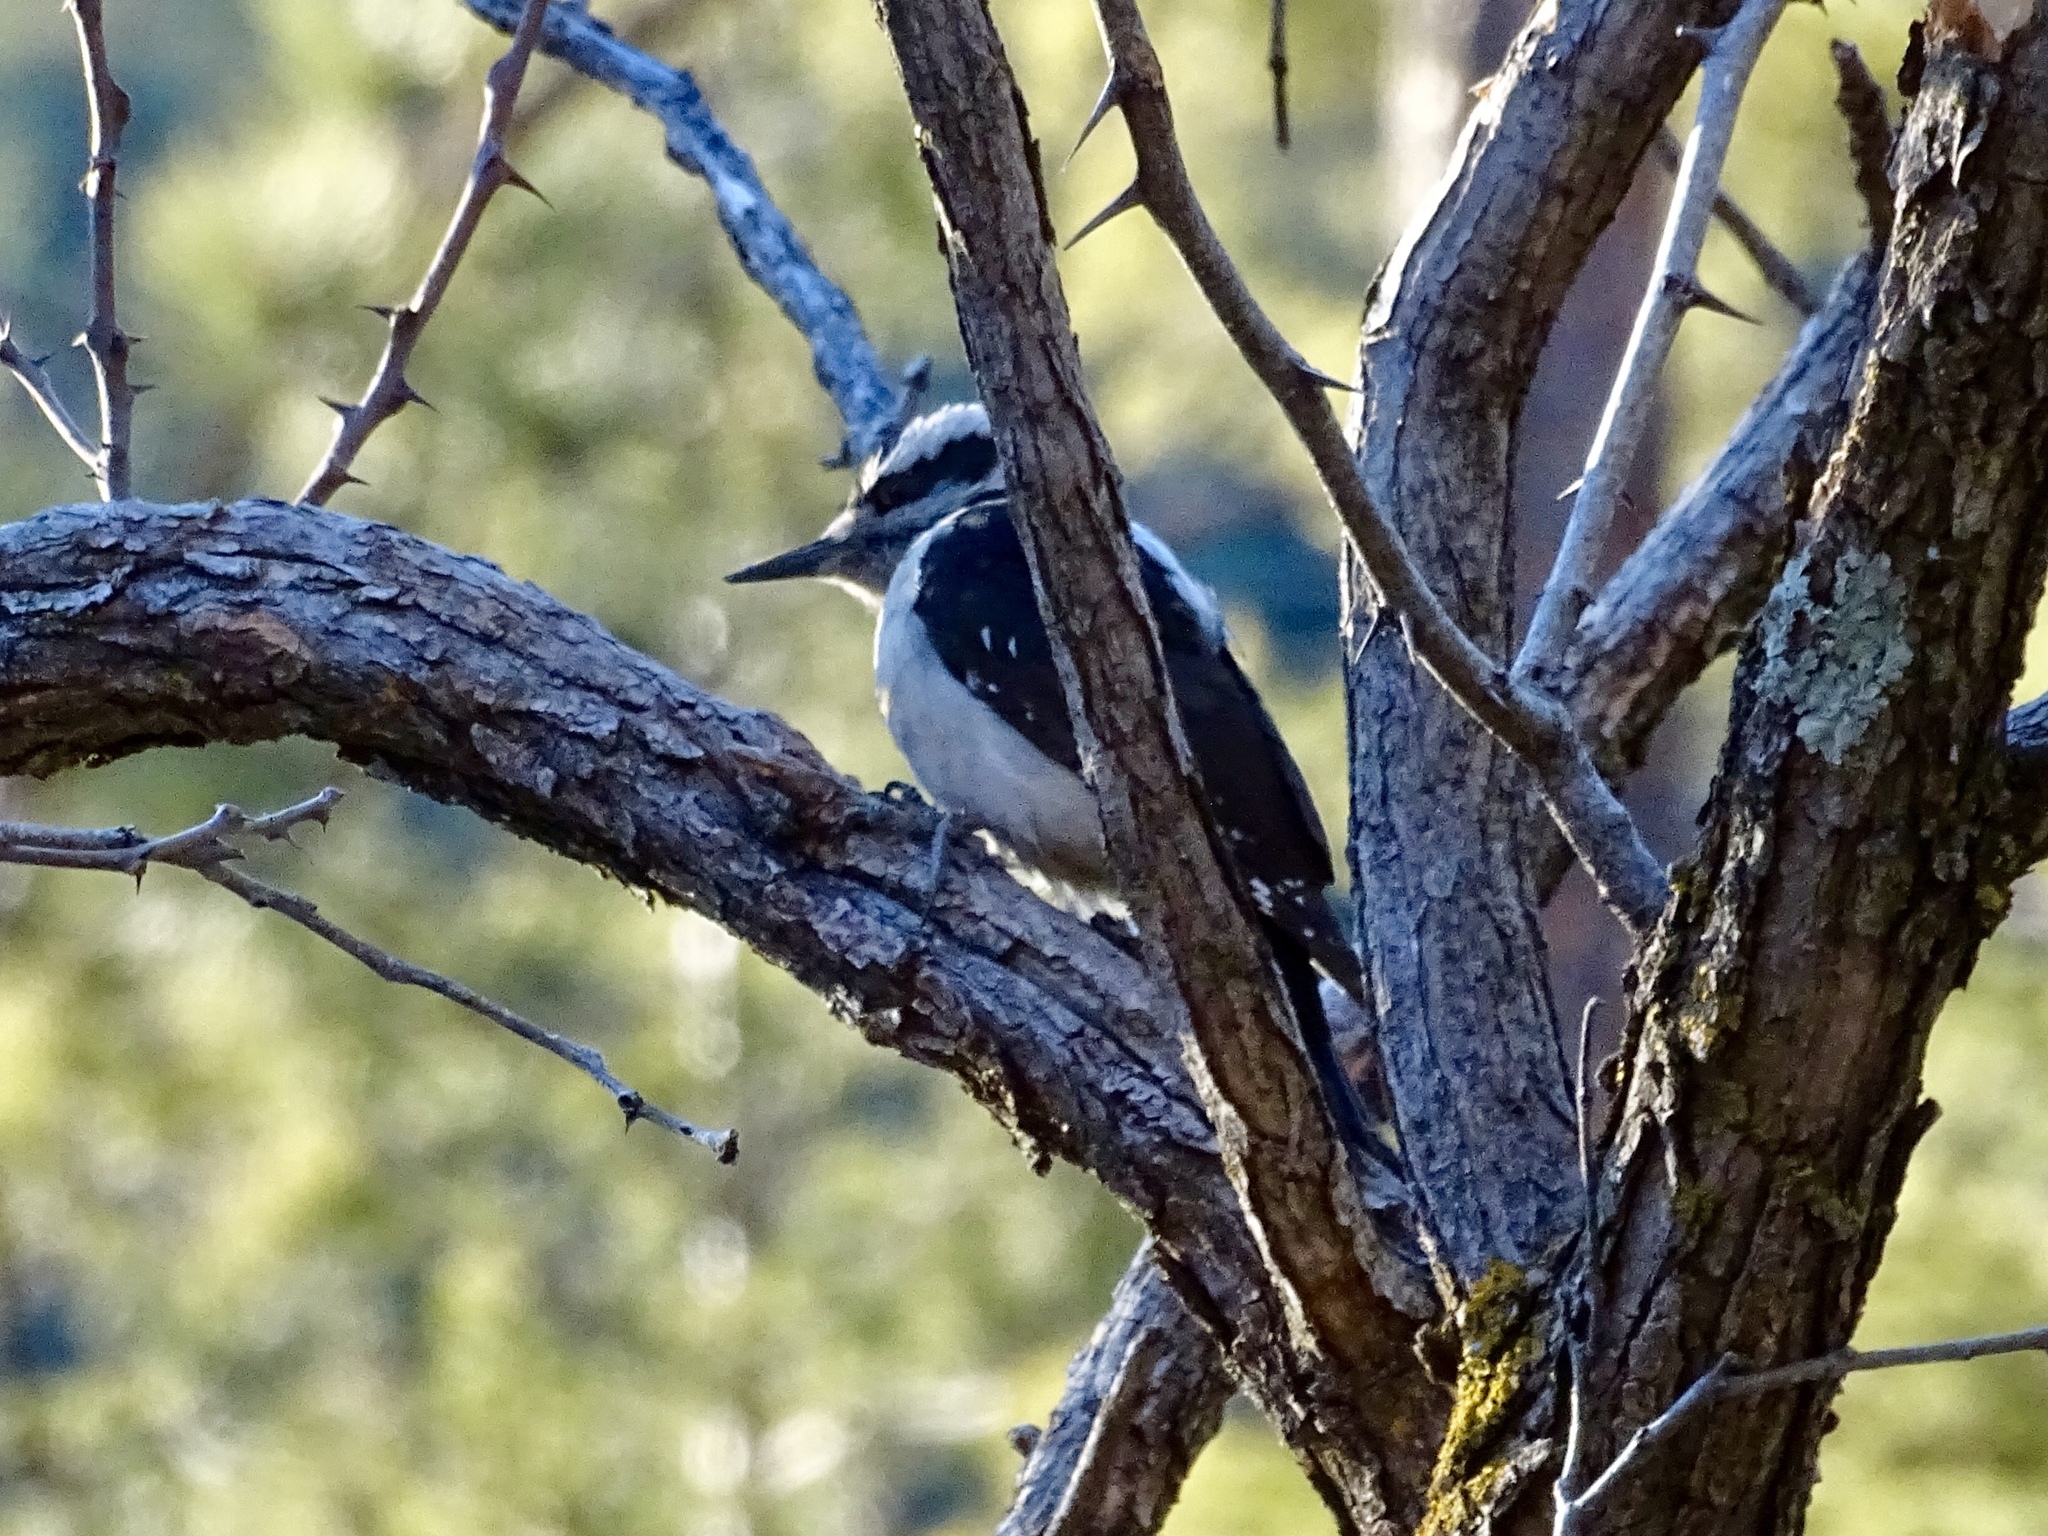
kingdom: Animalia
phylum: Chordata
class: Aves
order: Piciformes
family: Picidae
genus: Leuconotopicus
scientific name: Leuconotopicus villosus
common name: Hairy woodpecker
